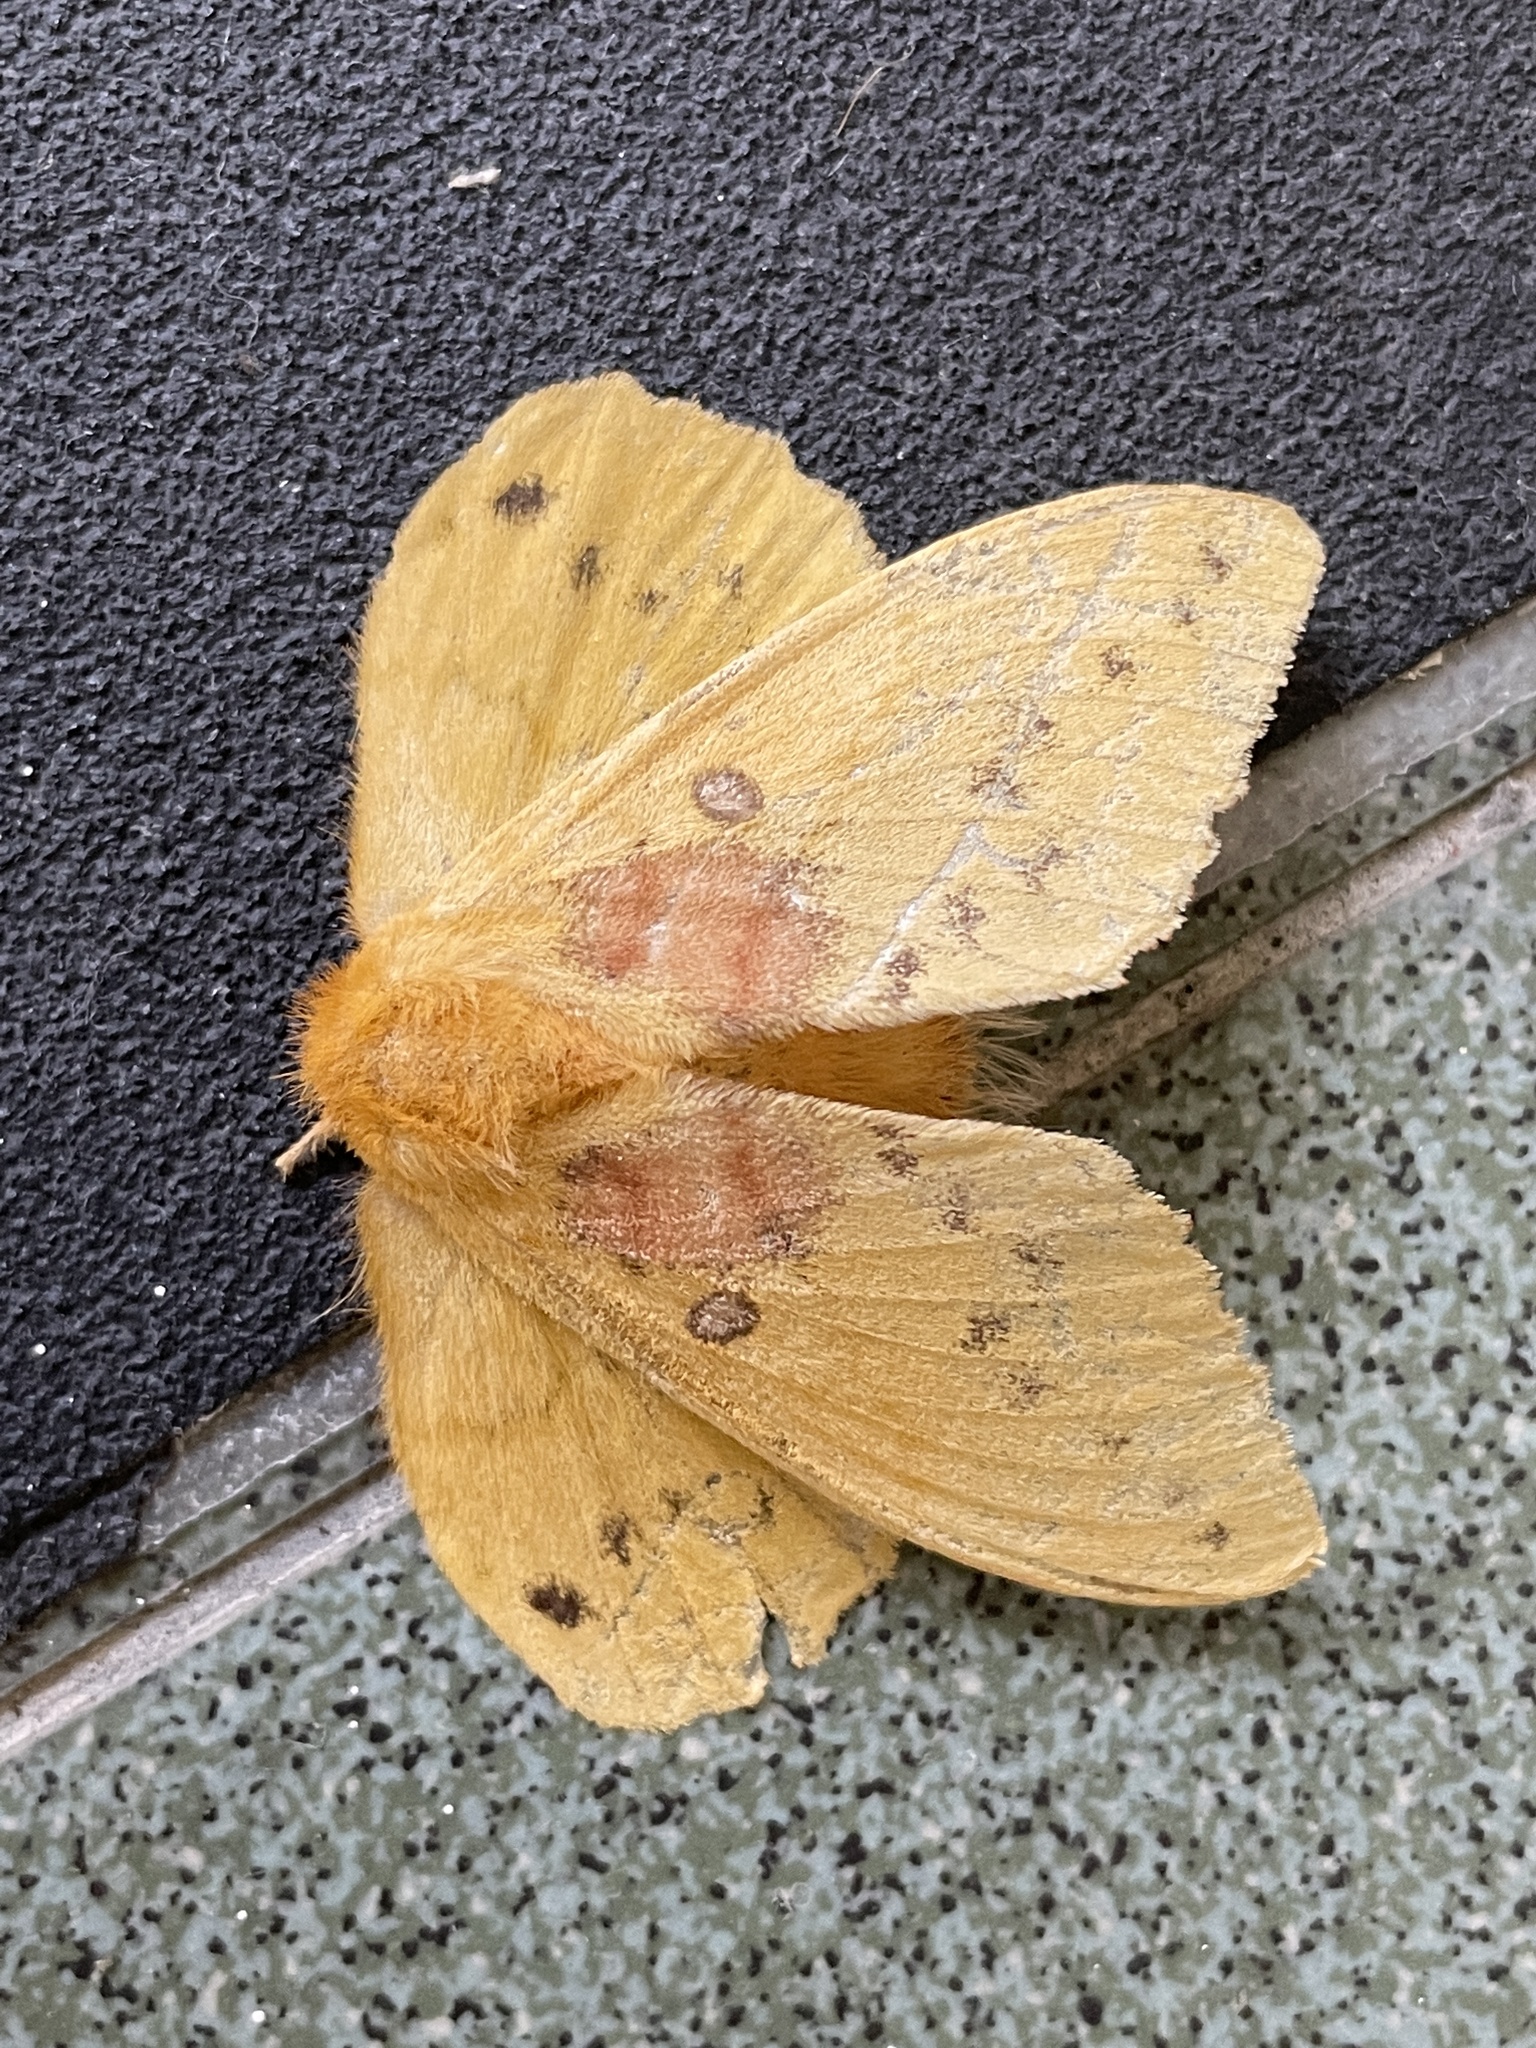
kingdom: Animalia
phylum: Arthropoda
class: Insecta
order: Lepidoptera
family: Lasiocampidae
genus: Trabala
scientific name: Trabala pallida
